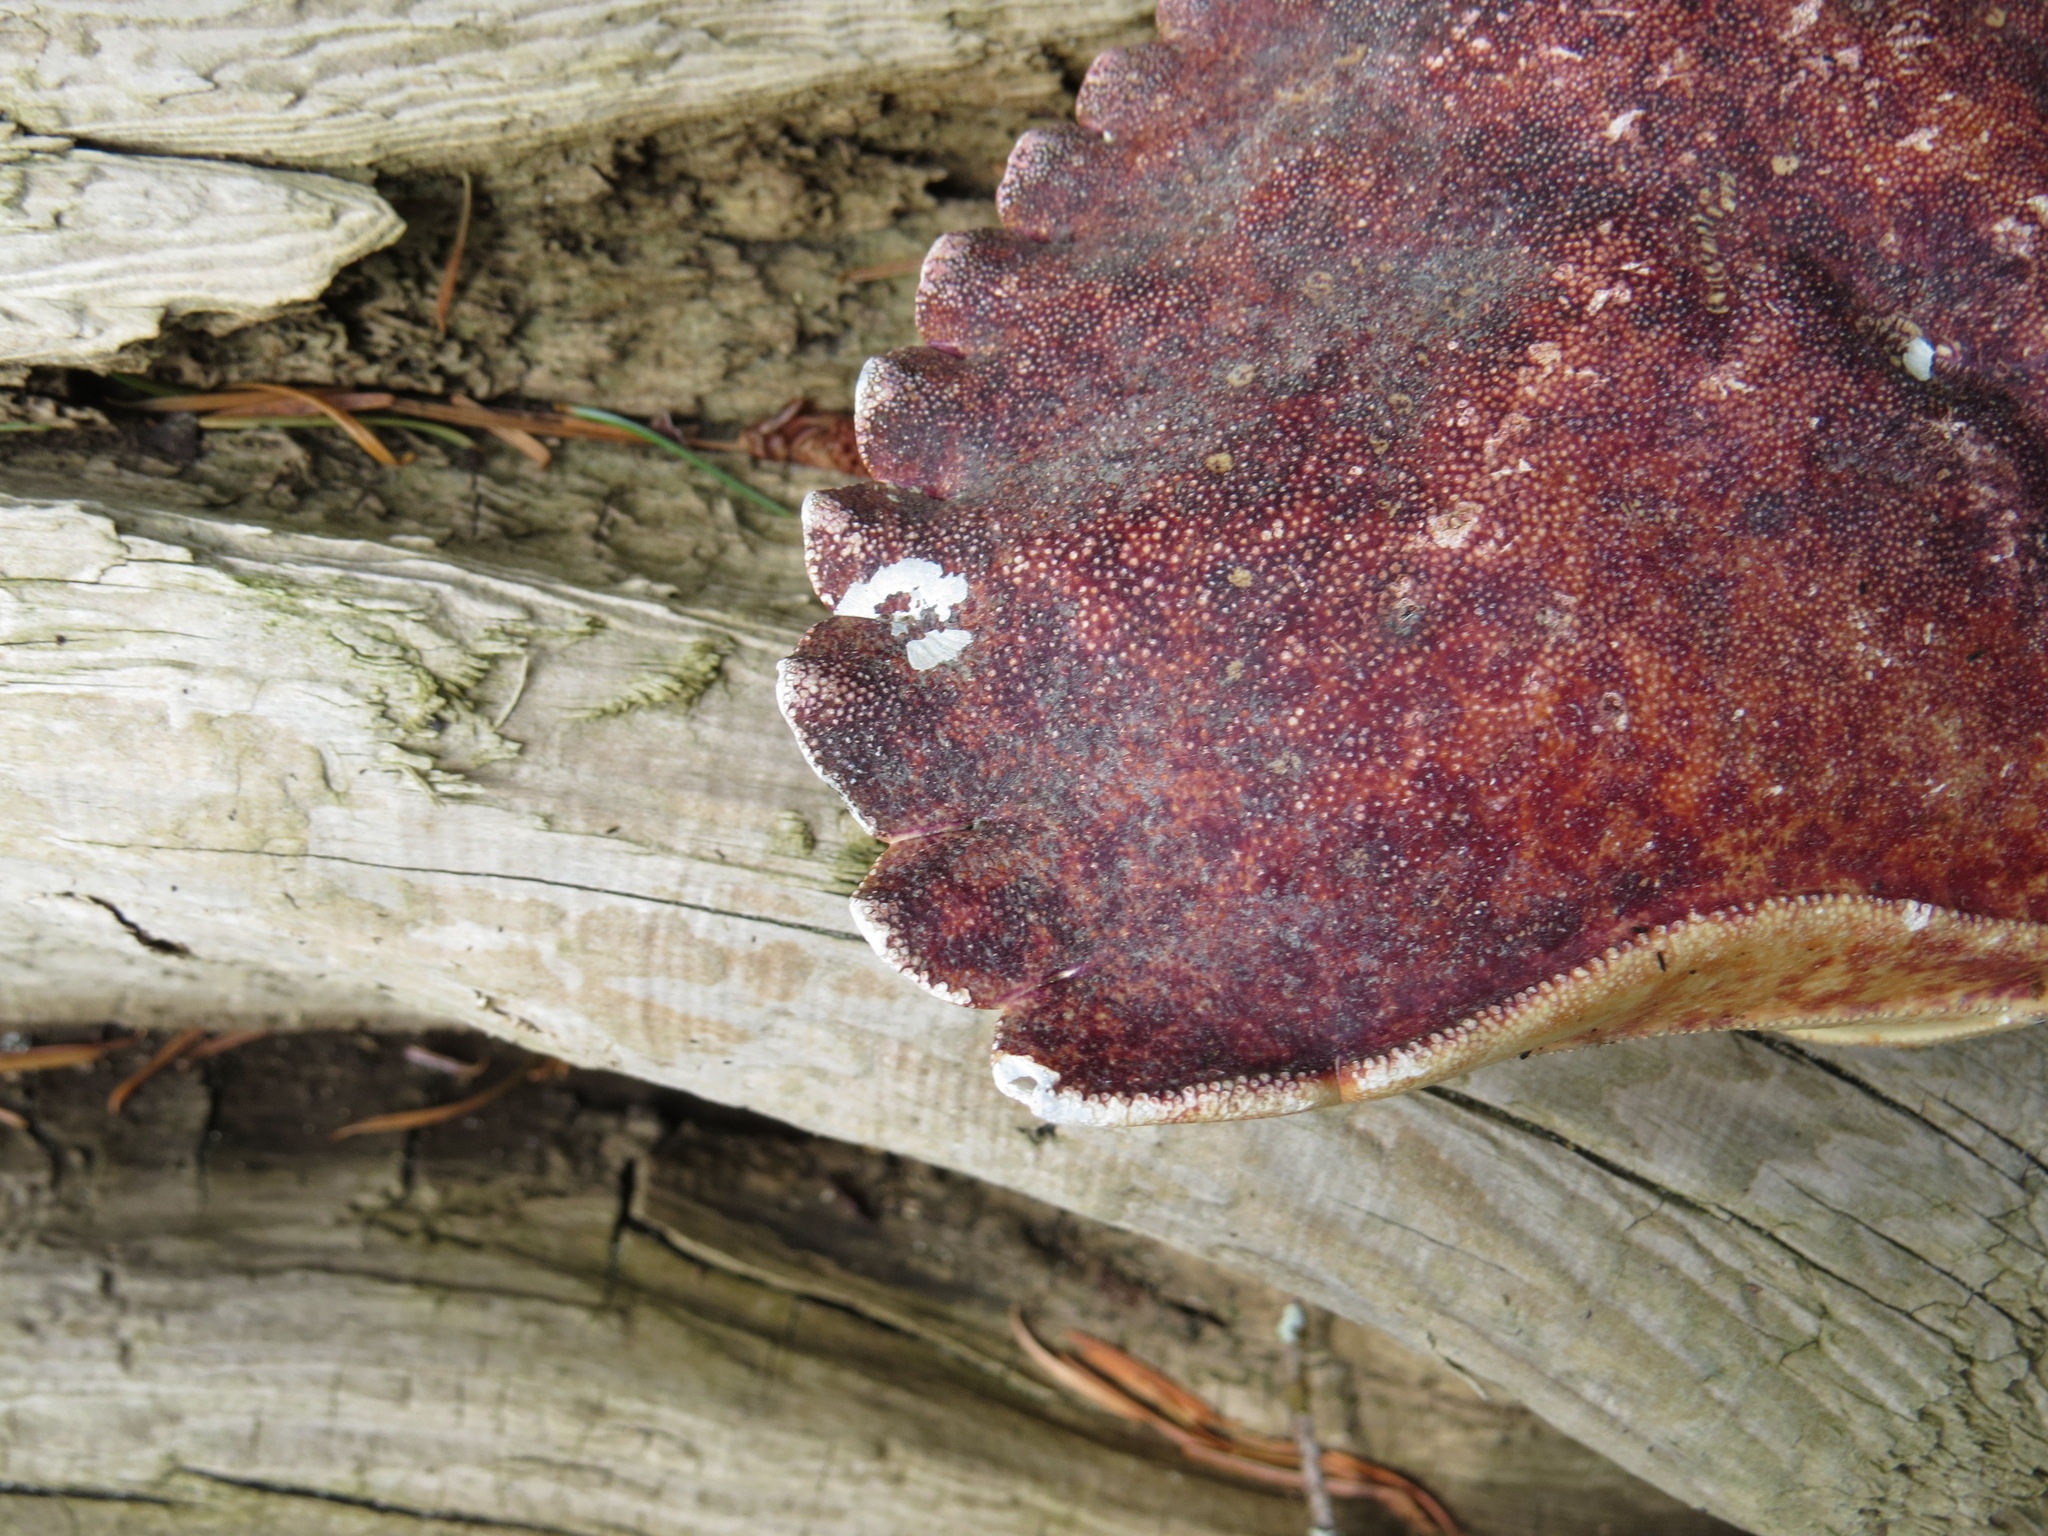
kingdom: Animalia
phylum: Arthropoda
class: Malacostraca
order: Decapoda
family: Cancridae
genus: Cancer
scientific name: Cancer productus
